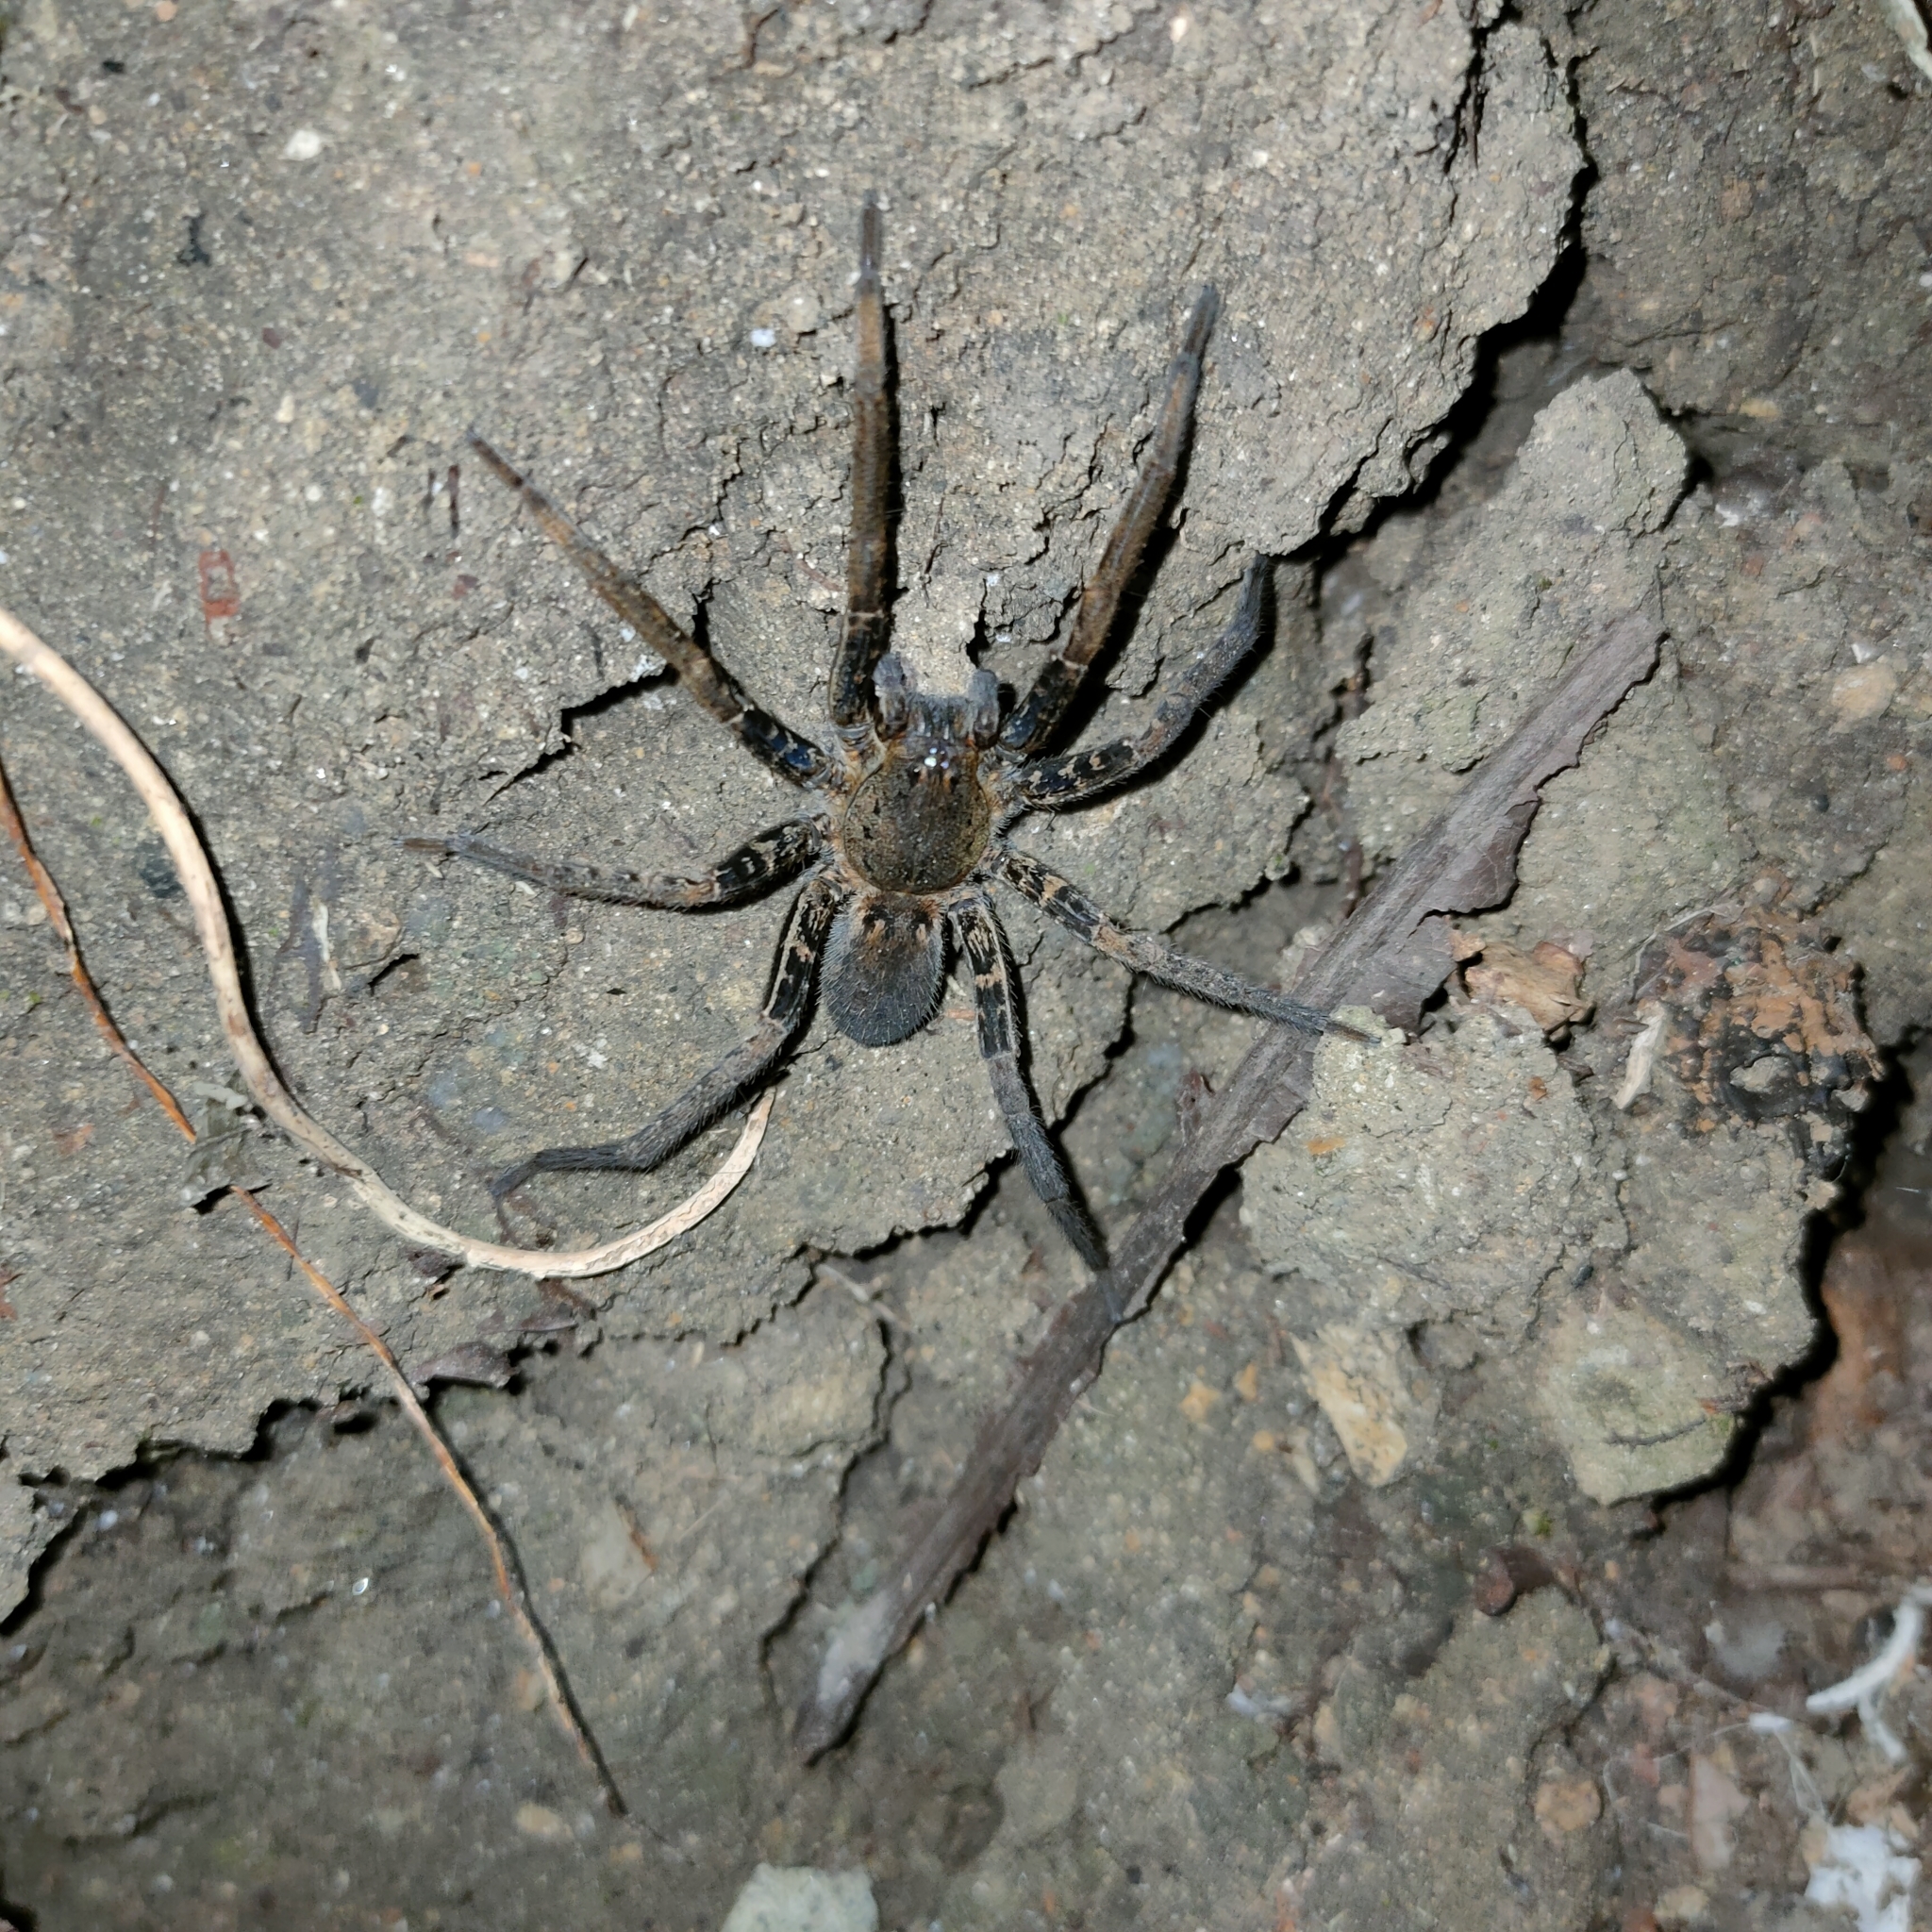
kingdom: Animalia
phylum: Arthropoda
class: Arachnida
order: Araneae
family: Ctenidae
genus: Ancylometes
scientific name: Ancylometes bogotensis
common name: Wandering spiders
